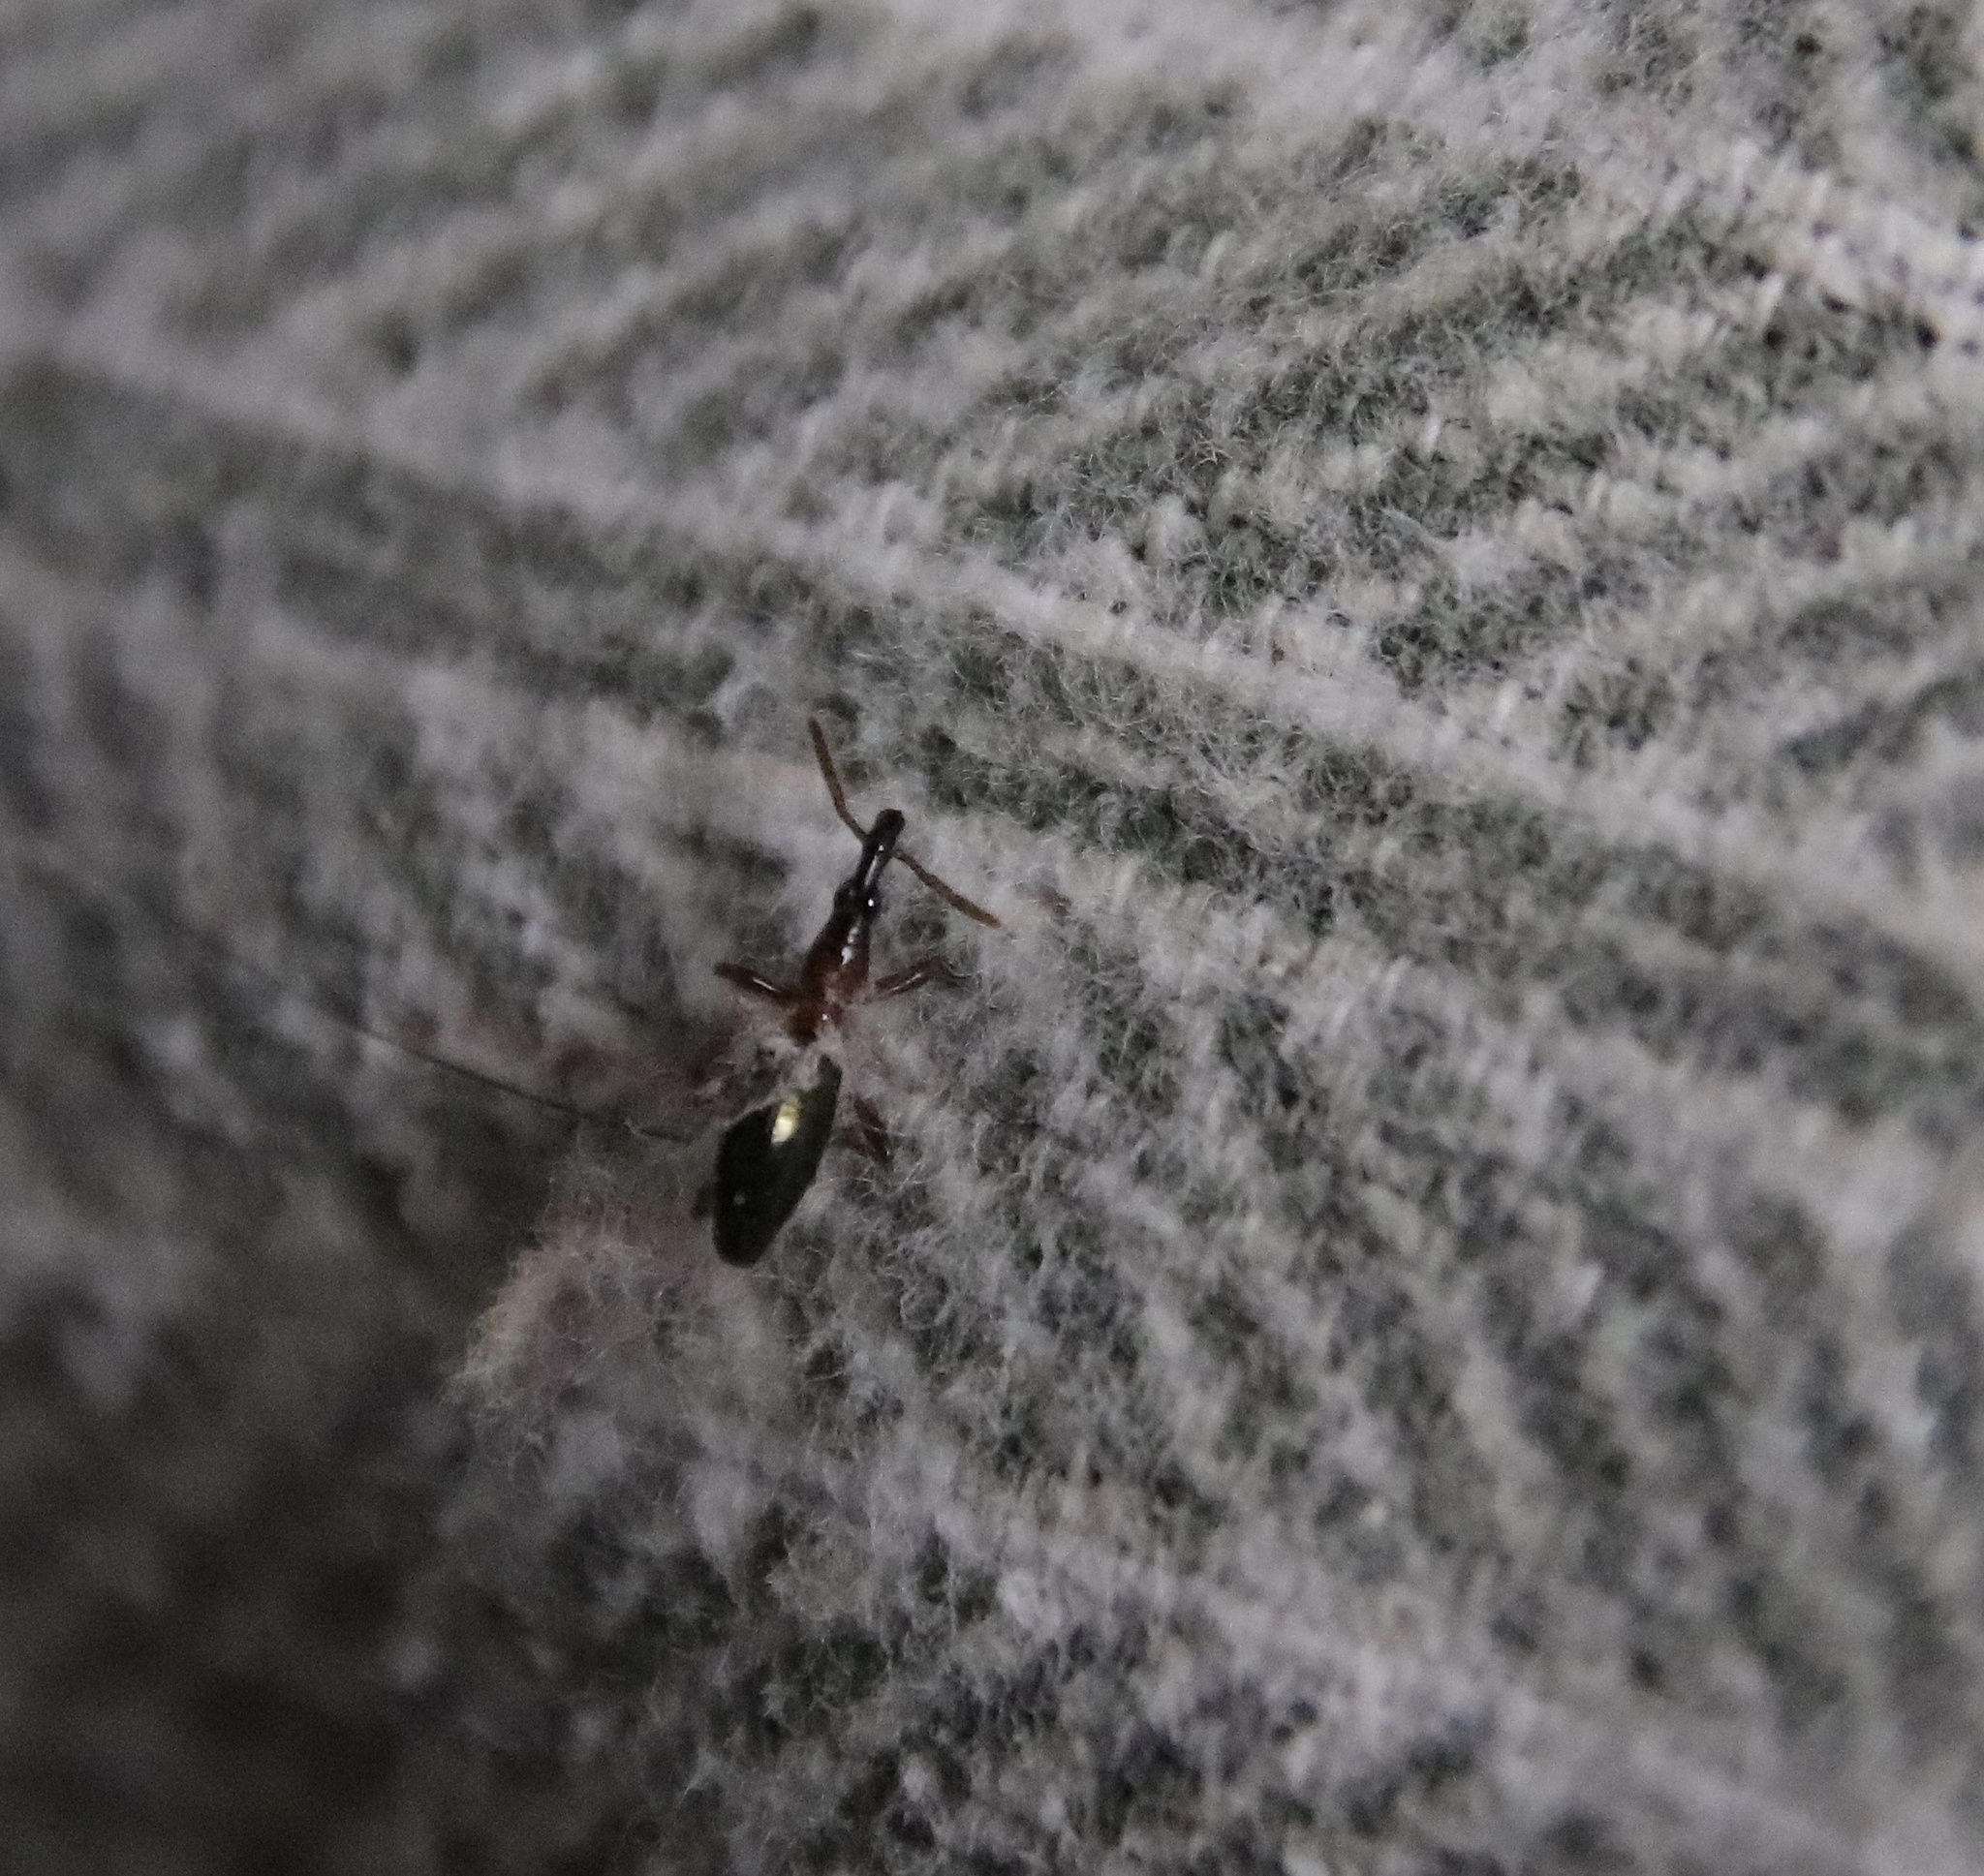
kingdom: Animalia
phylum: Arthropoda
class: Insecta
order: Coleoptera
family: Brentidae
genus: Cylas
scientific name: Cylas formicarius
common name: Sweetpotato weevil
